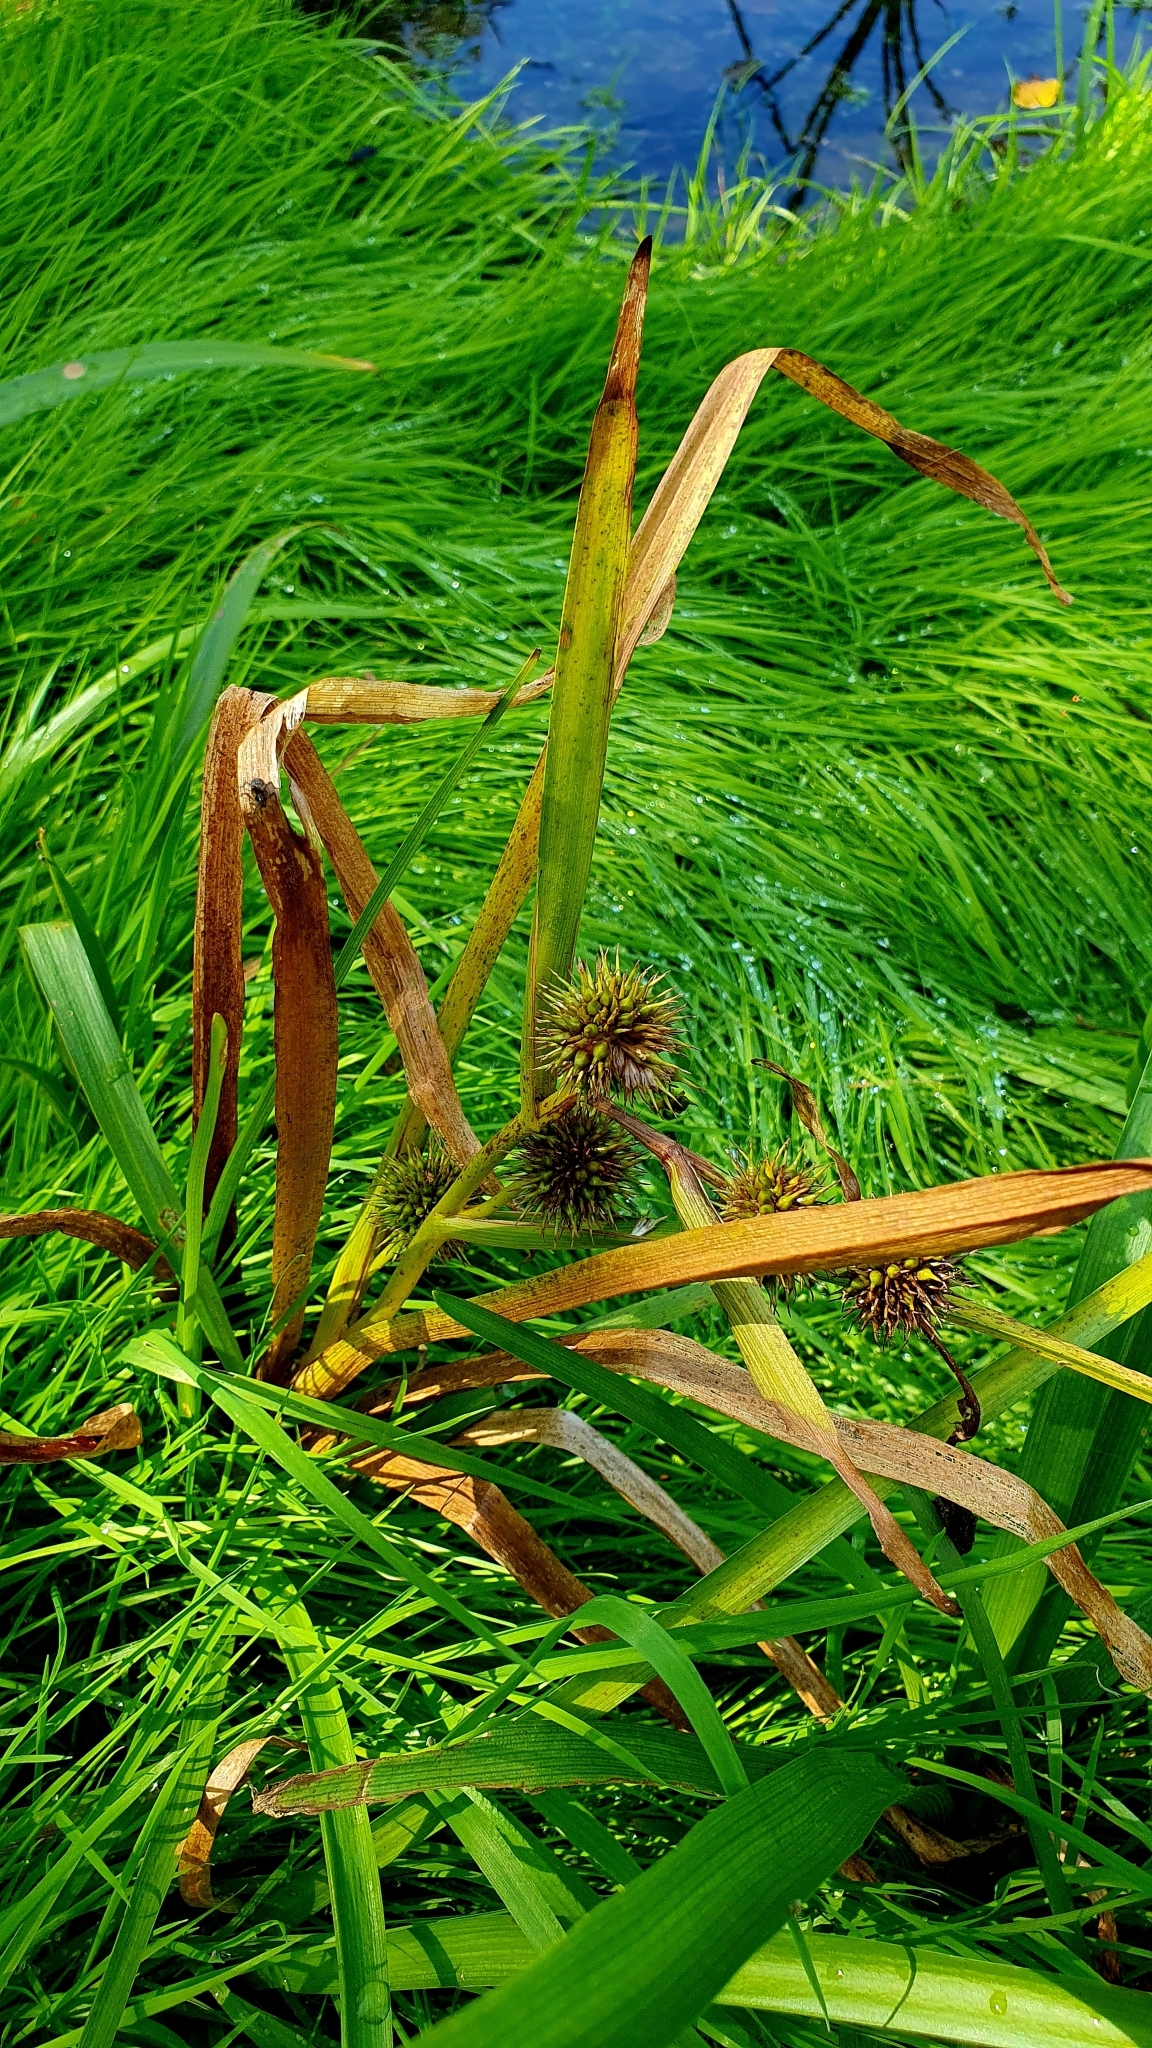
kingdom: Plantae
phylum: Tracheophyta
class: Liliopsida
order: Poales
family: Typhaceae
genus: Sparganium
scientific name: Sparganium emersum
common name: Unbranched bur-reed
